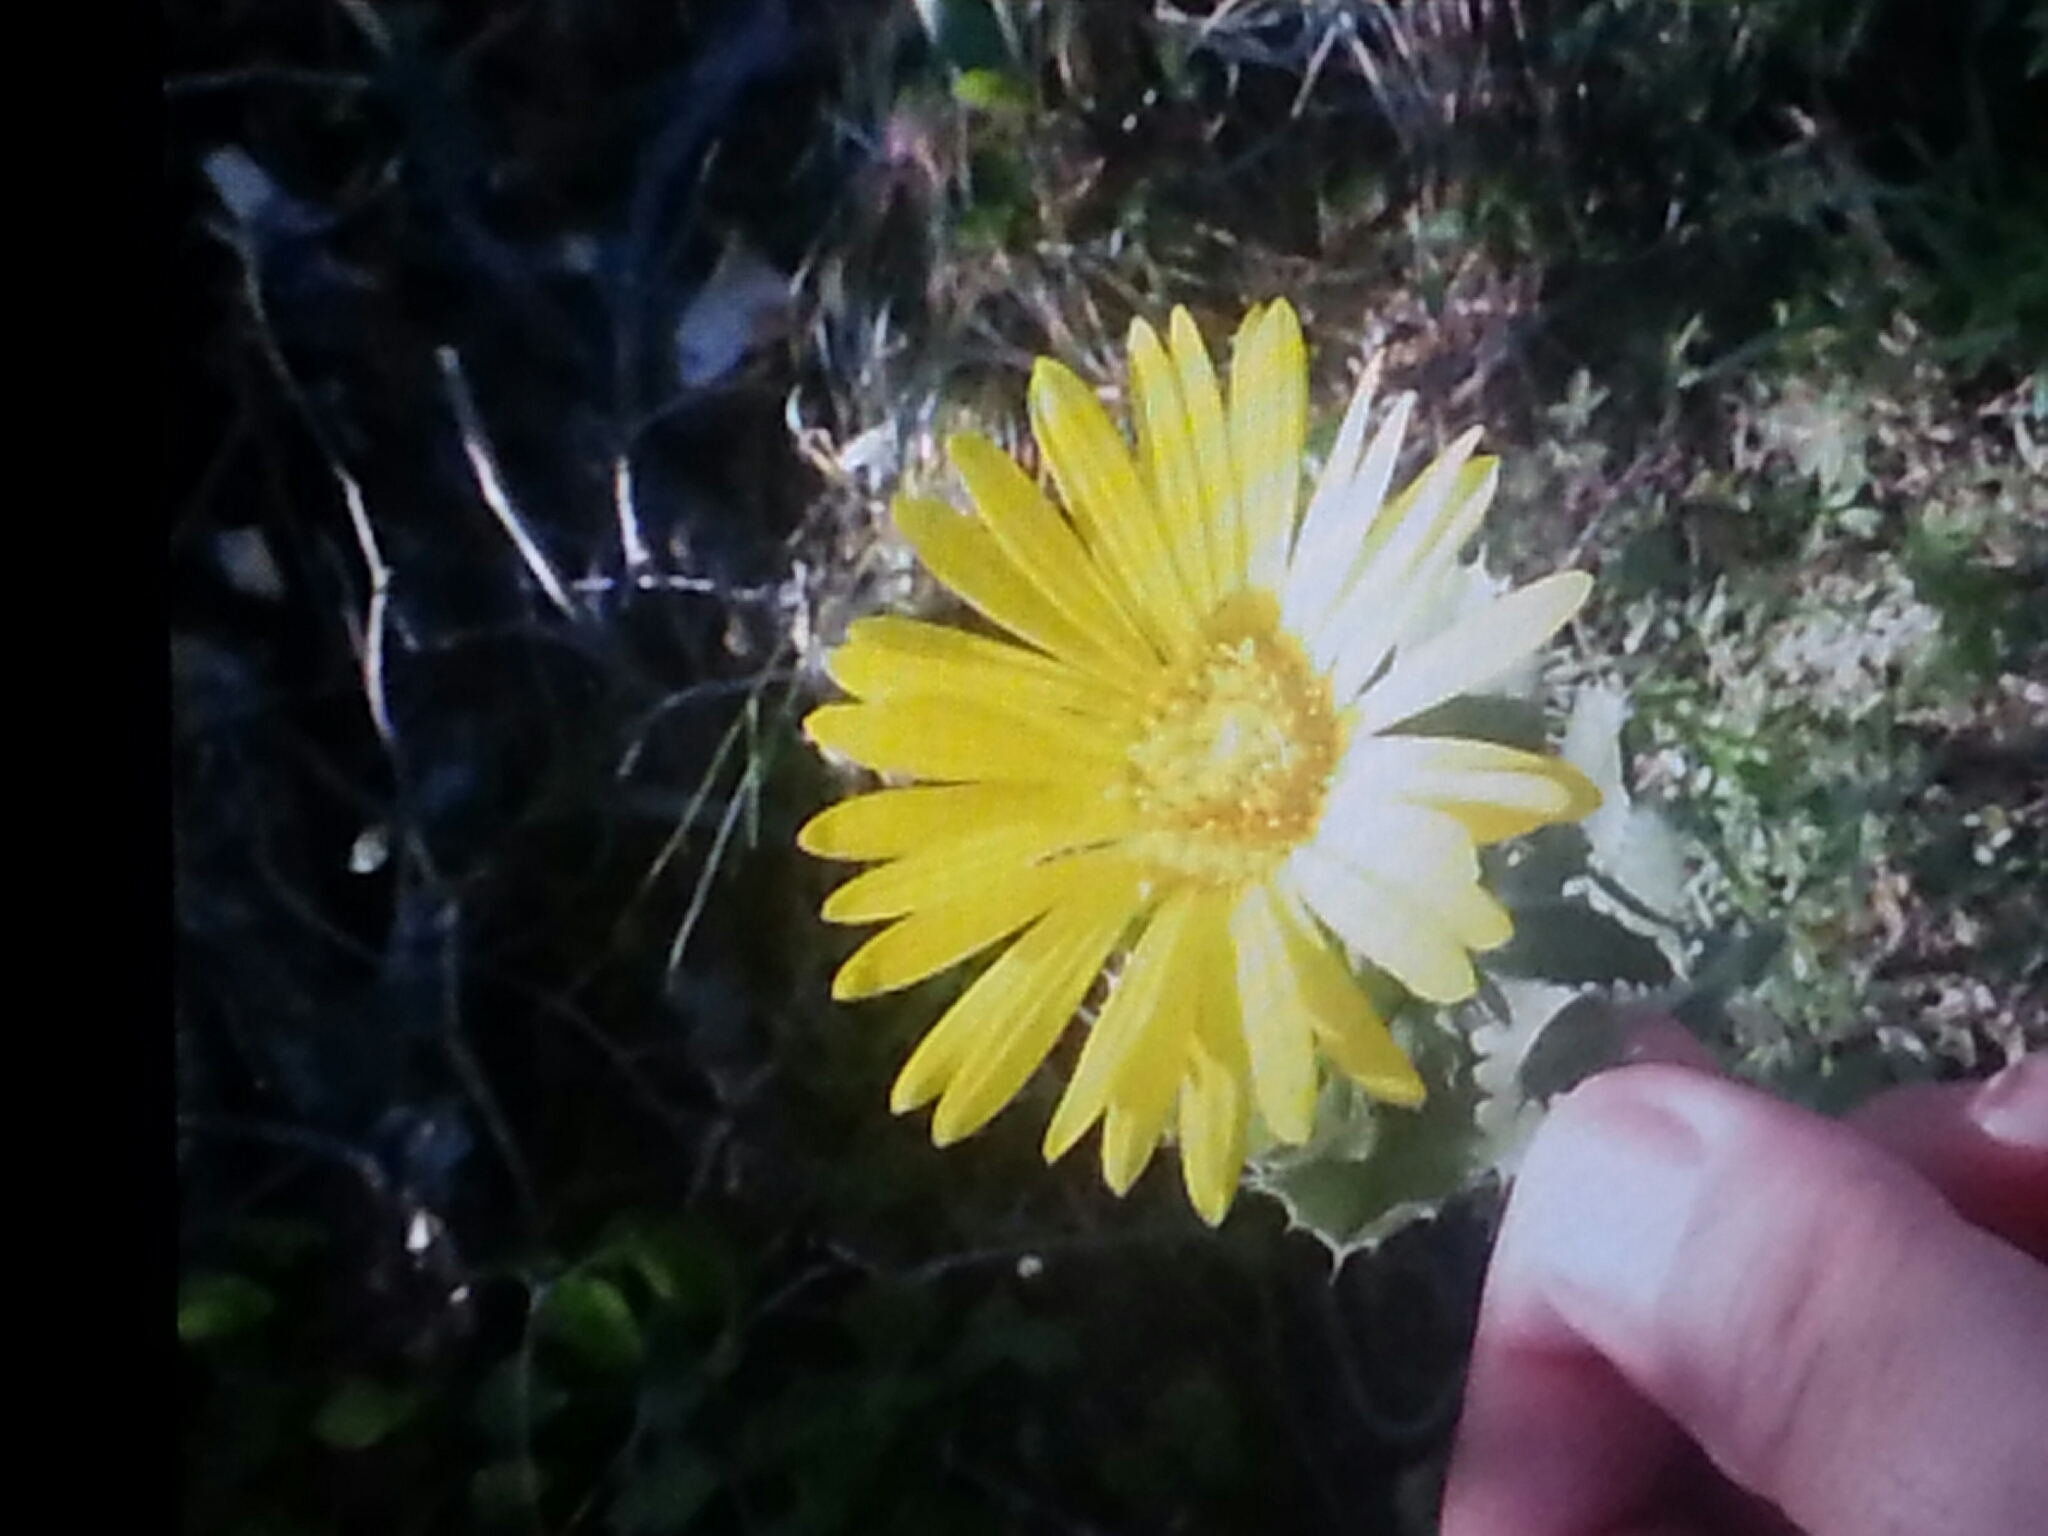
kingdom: Plantae
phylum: Tracheophyta
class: Magnoliopsida
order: Asterales
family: Asteraceae
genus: Grindelia
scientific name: Grindelia ciliata
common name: Goldenweed
